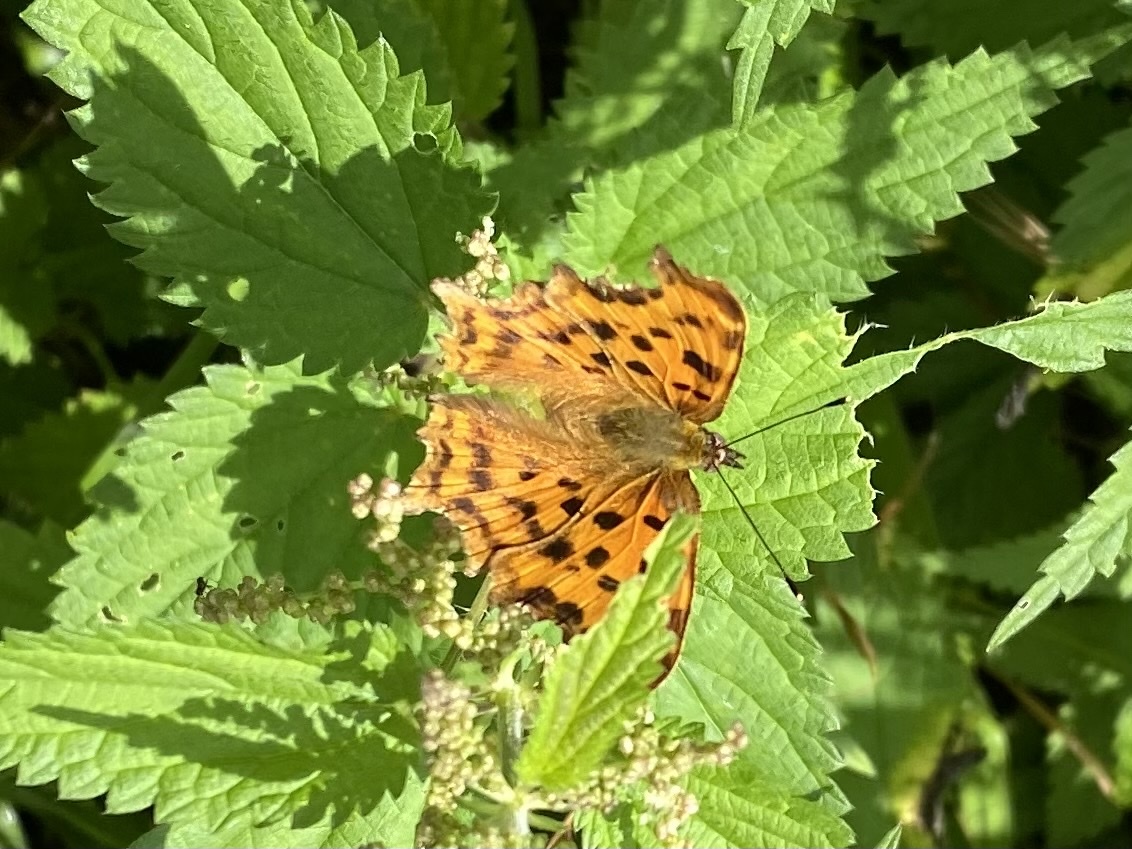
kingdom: Animalia
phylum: Arthropoda
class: Insecta
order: Lepidoptera
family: Nymphalidae
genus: Polygonia
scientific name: Polygonia c-album
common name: Comma
